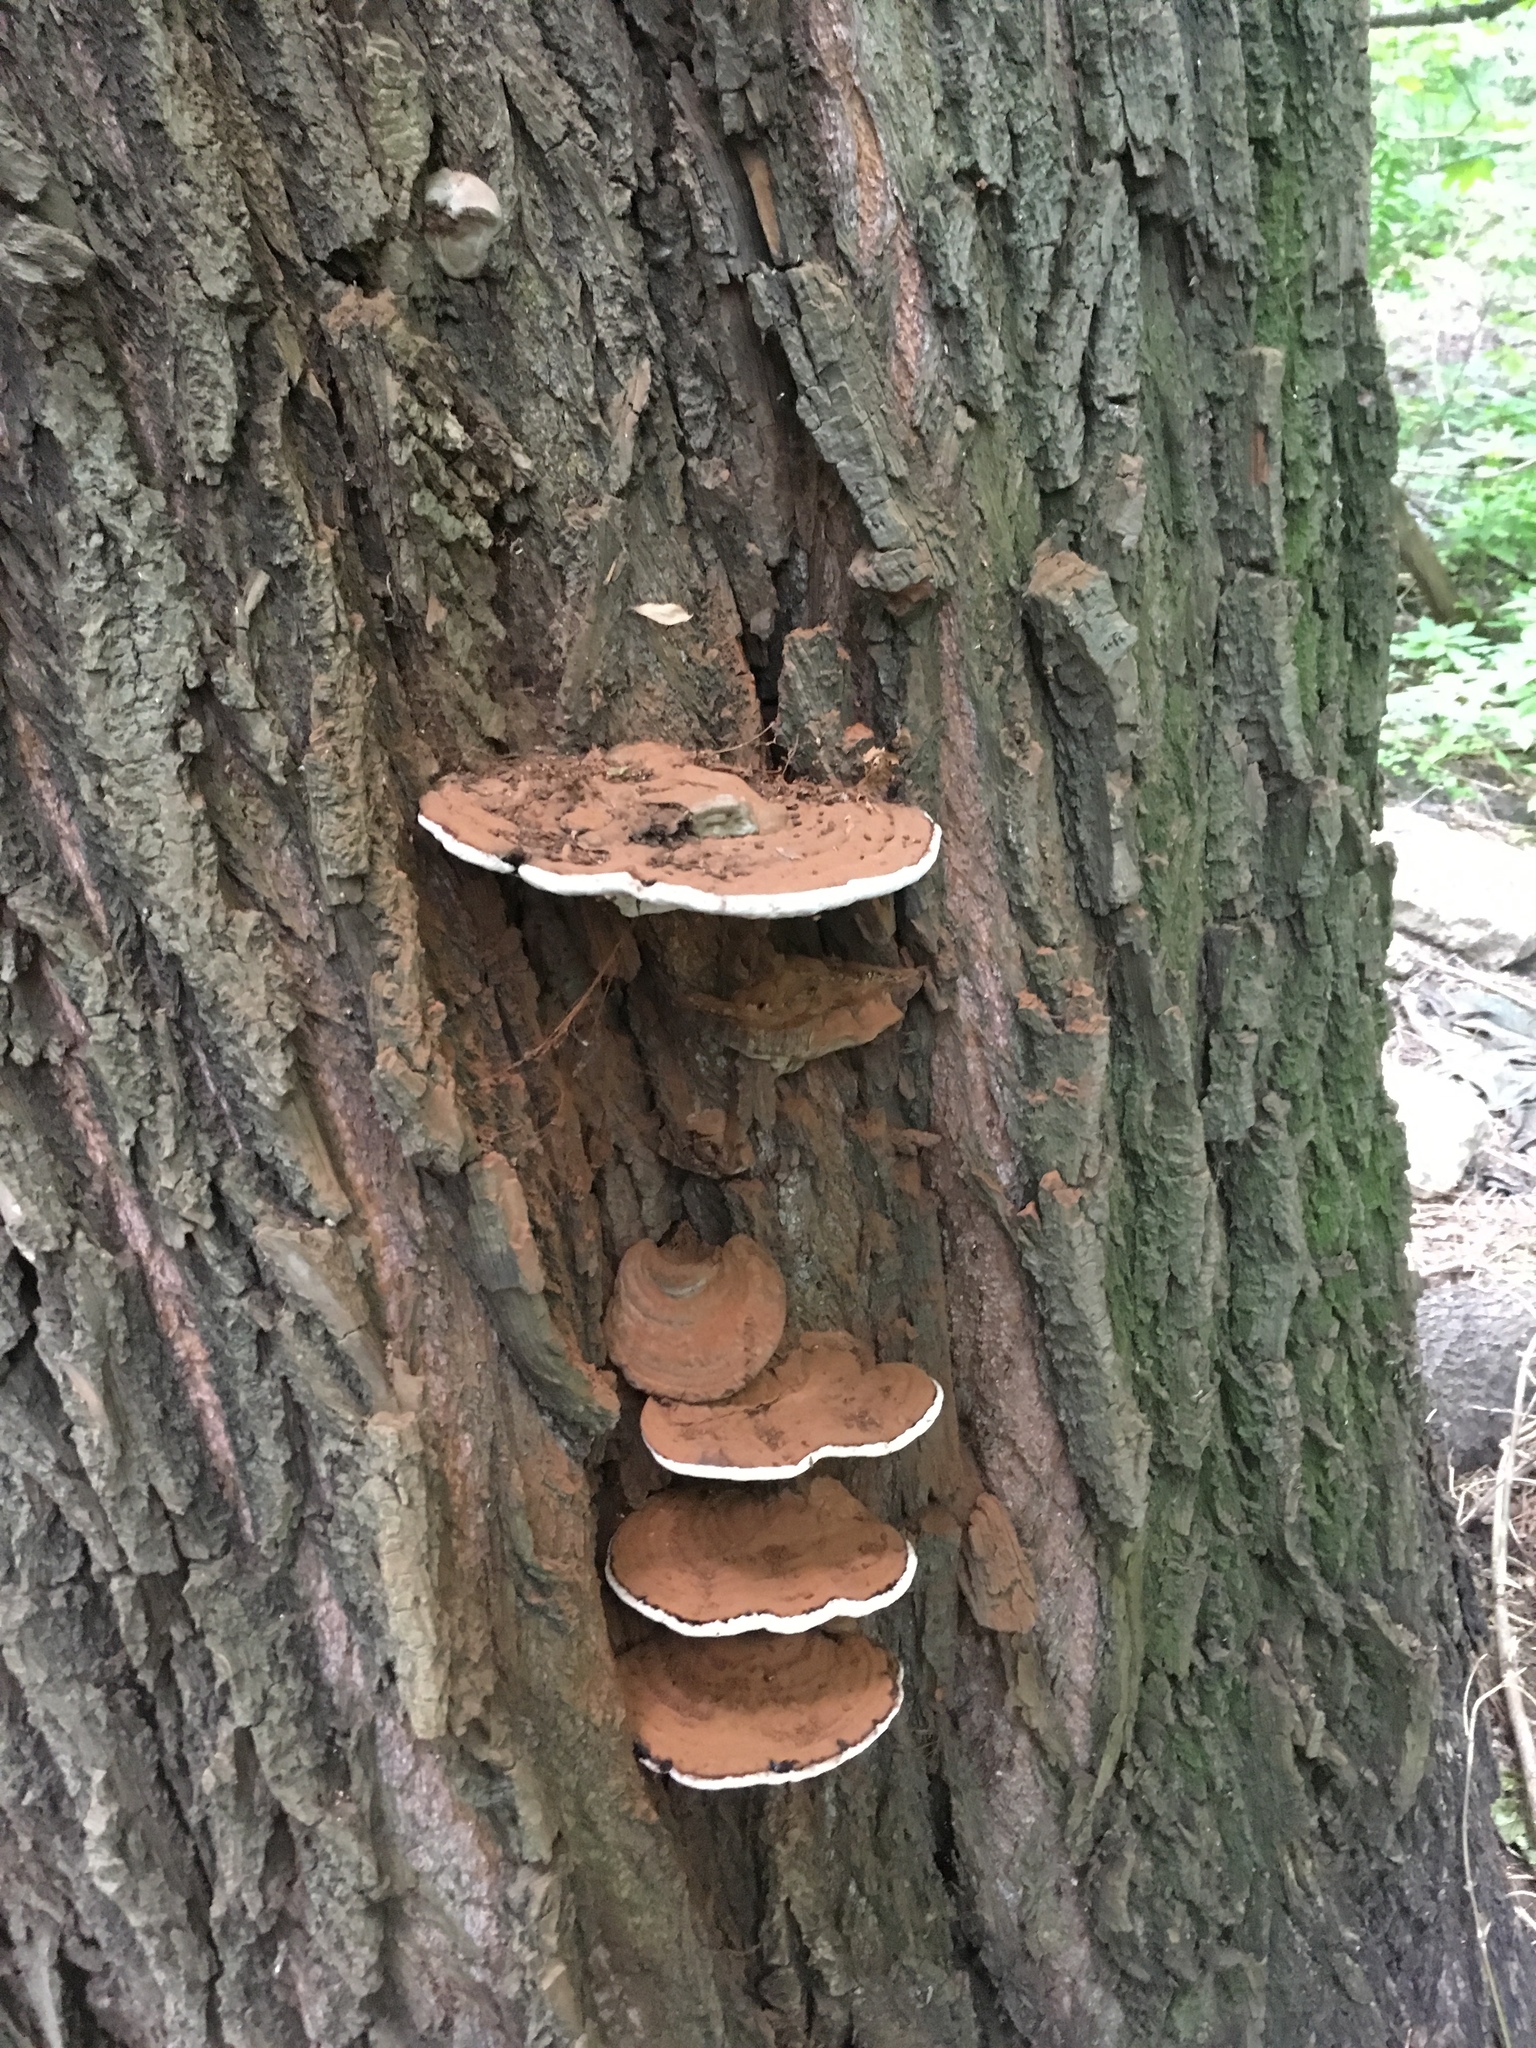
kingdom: Fungi
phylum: Basidiomycota
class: Agaricomycetes
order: Polyporales
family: Polyporaceae
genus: Ganoderma
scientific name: Ganoderma applanatum
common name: Artist's bracket
